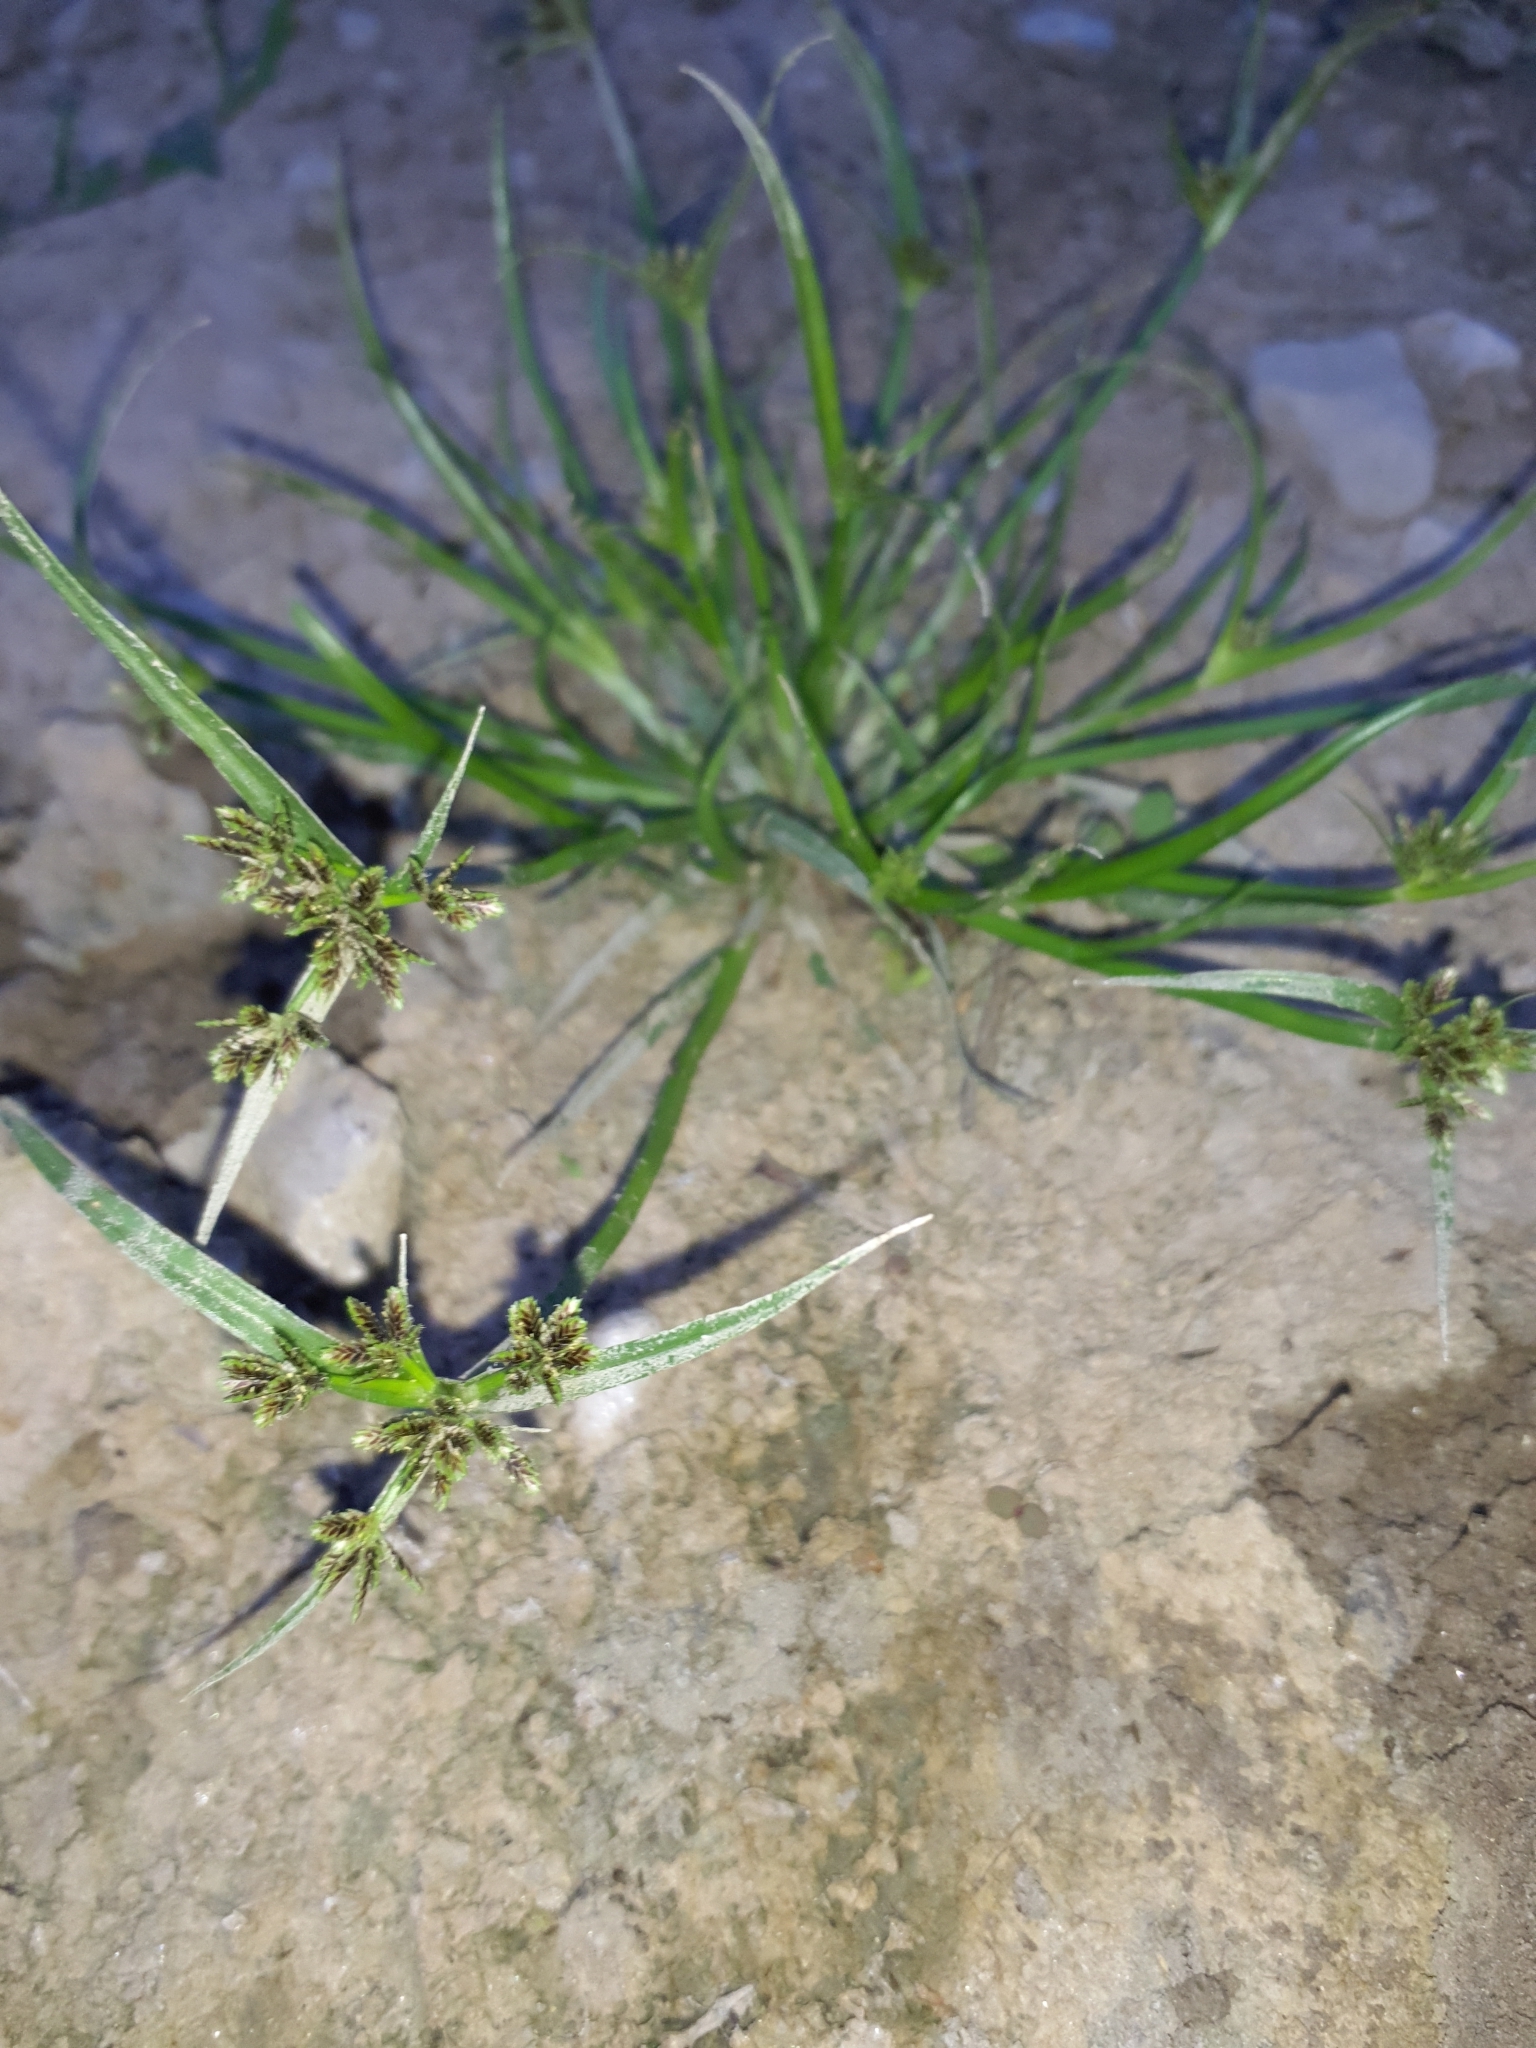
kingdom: Plantae
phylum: Tracheophyta
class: Liliopsida
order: Poales
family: Cyperaceae
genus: Cyperus
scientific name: Cyperus fuscus
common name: Brown galingale
